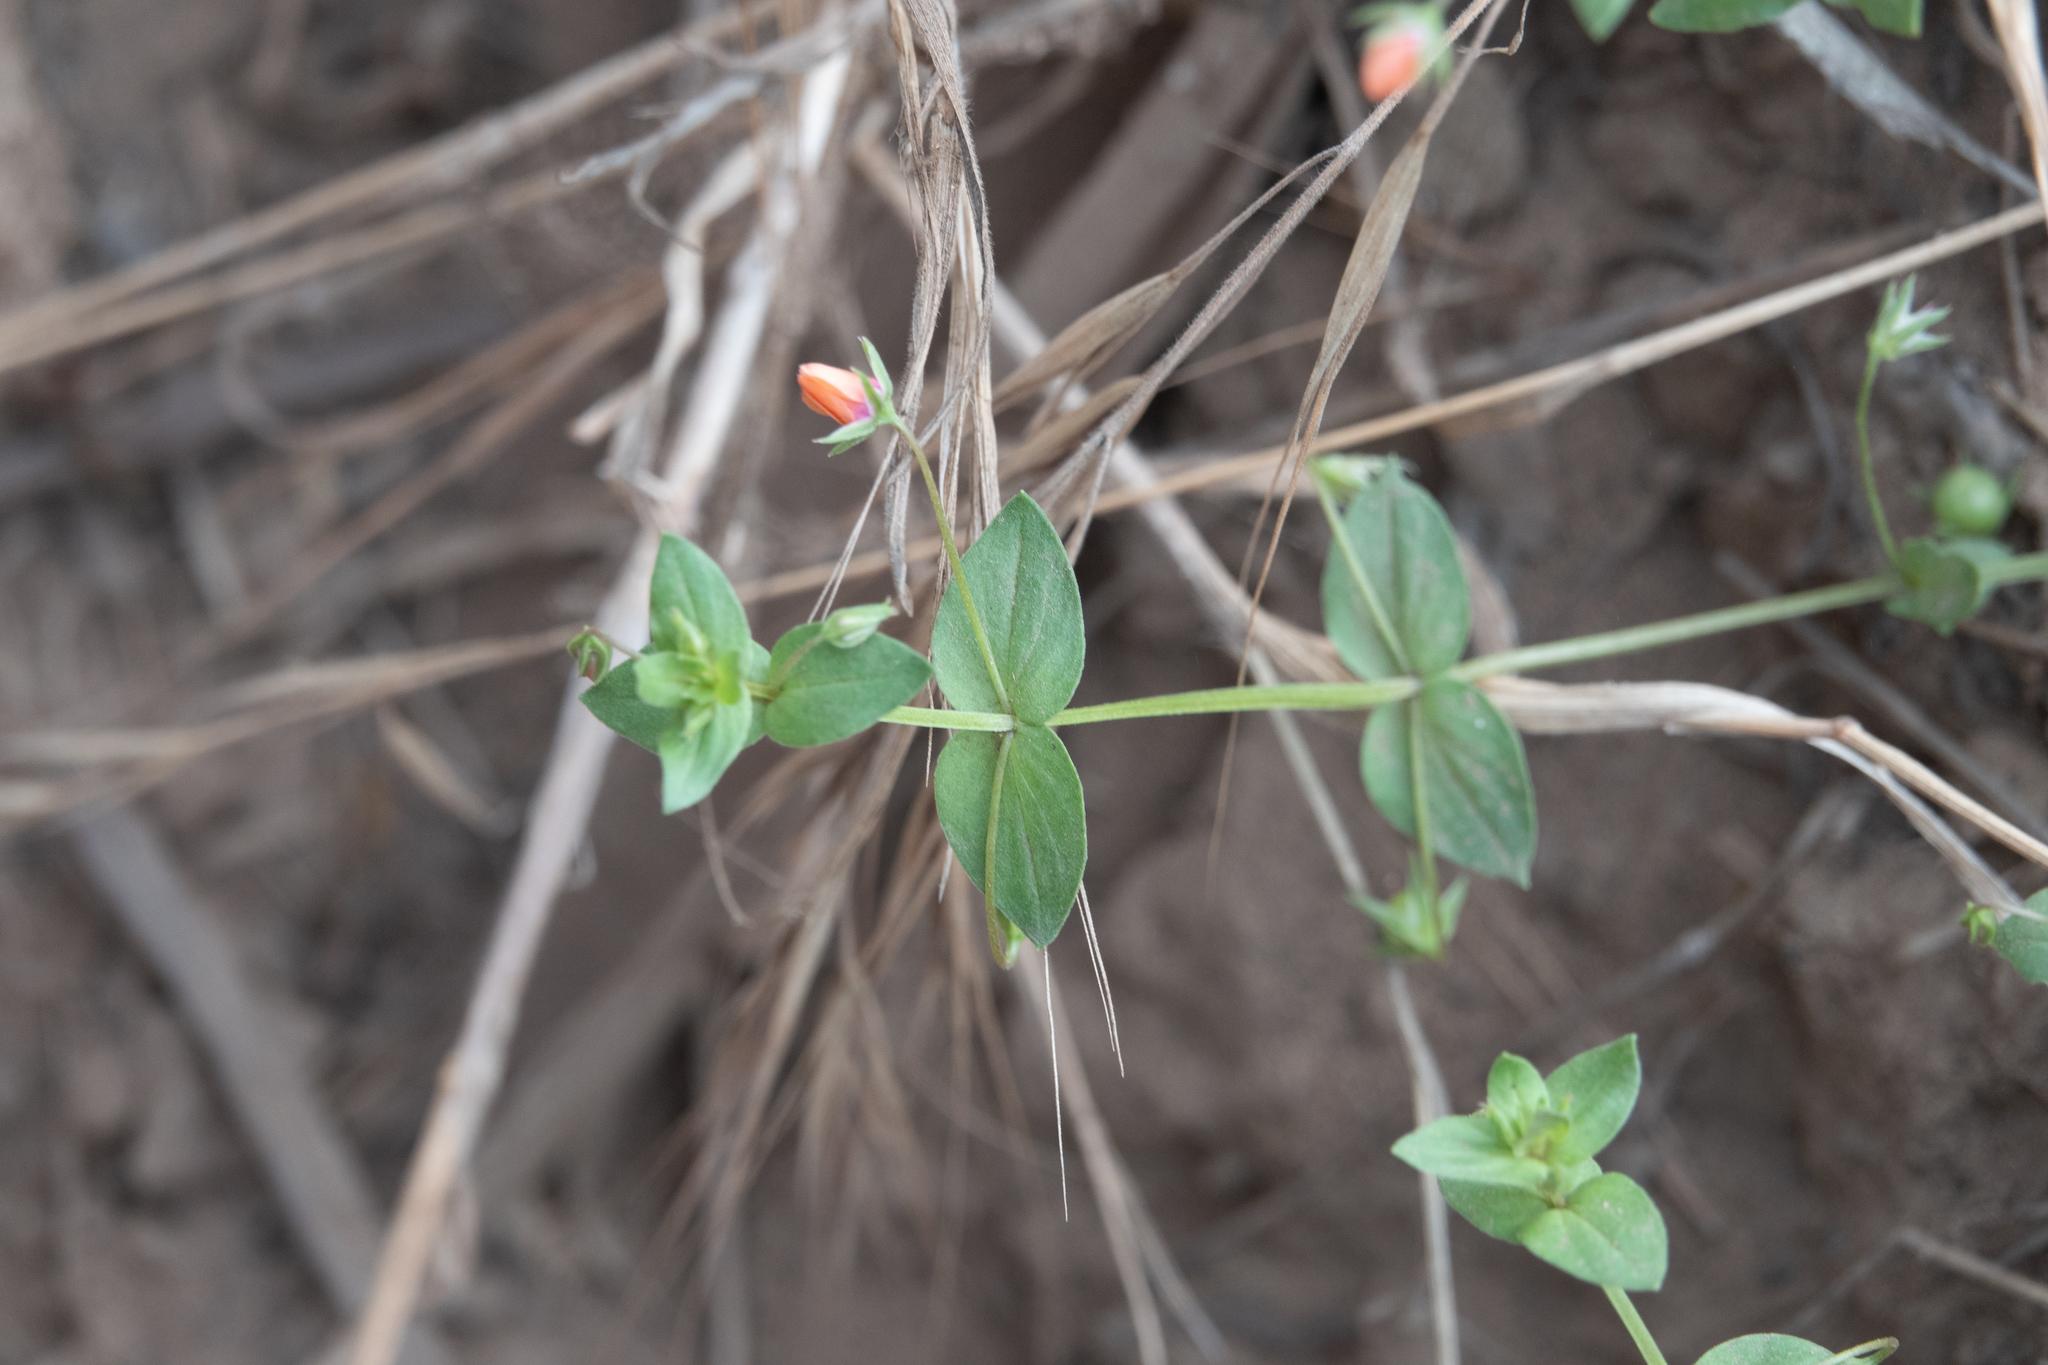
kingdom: Plantae
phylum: Tracheophyta
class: Magnoliopsida
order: Ericales
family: Primulaceae
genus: Lysimachia
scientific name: Lysimachia arvensis
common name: Scarlet pimpernel
